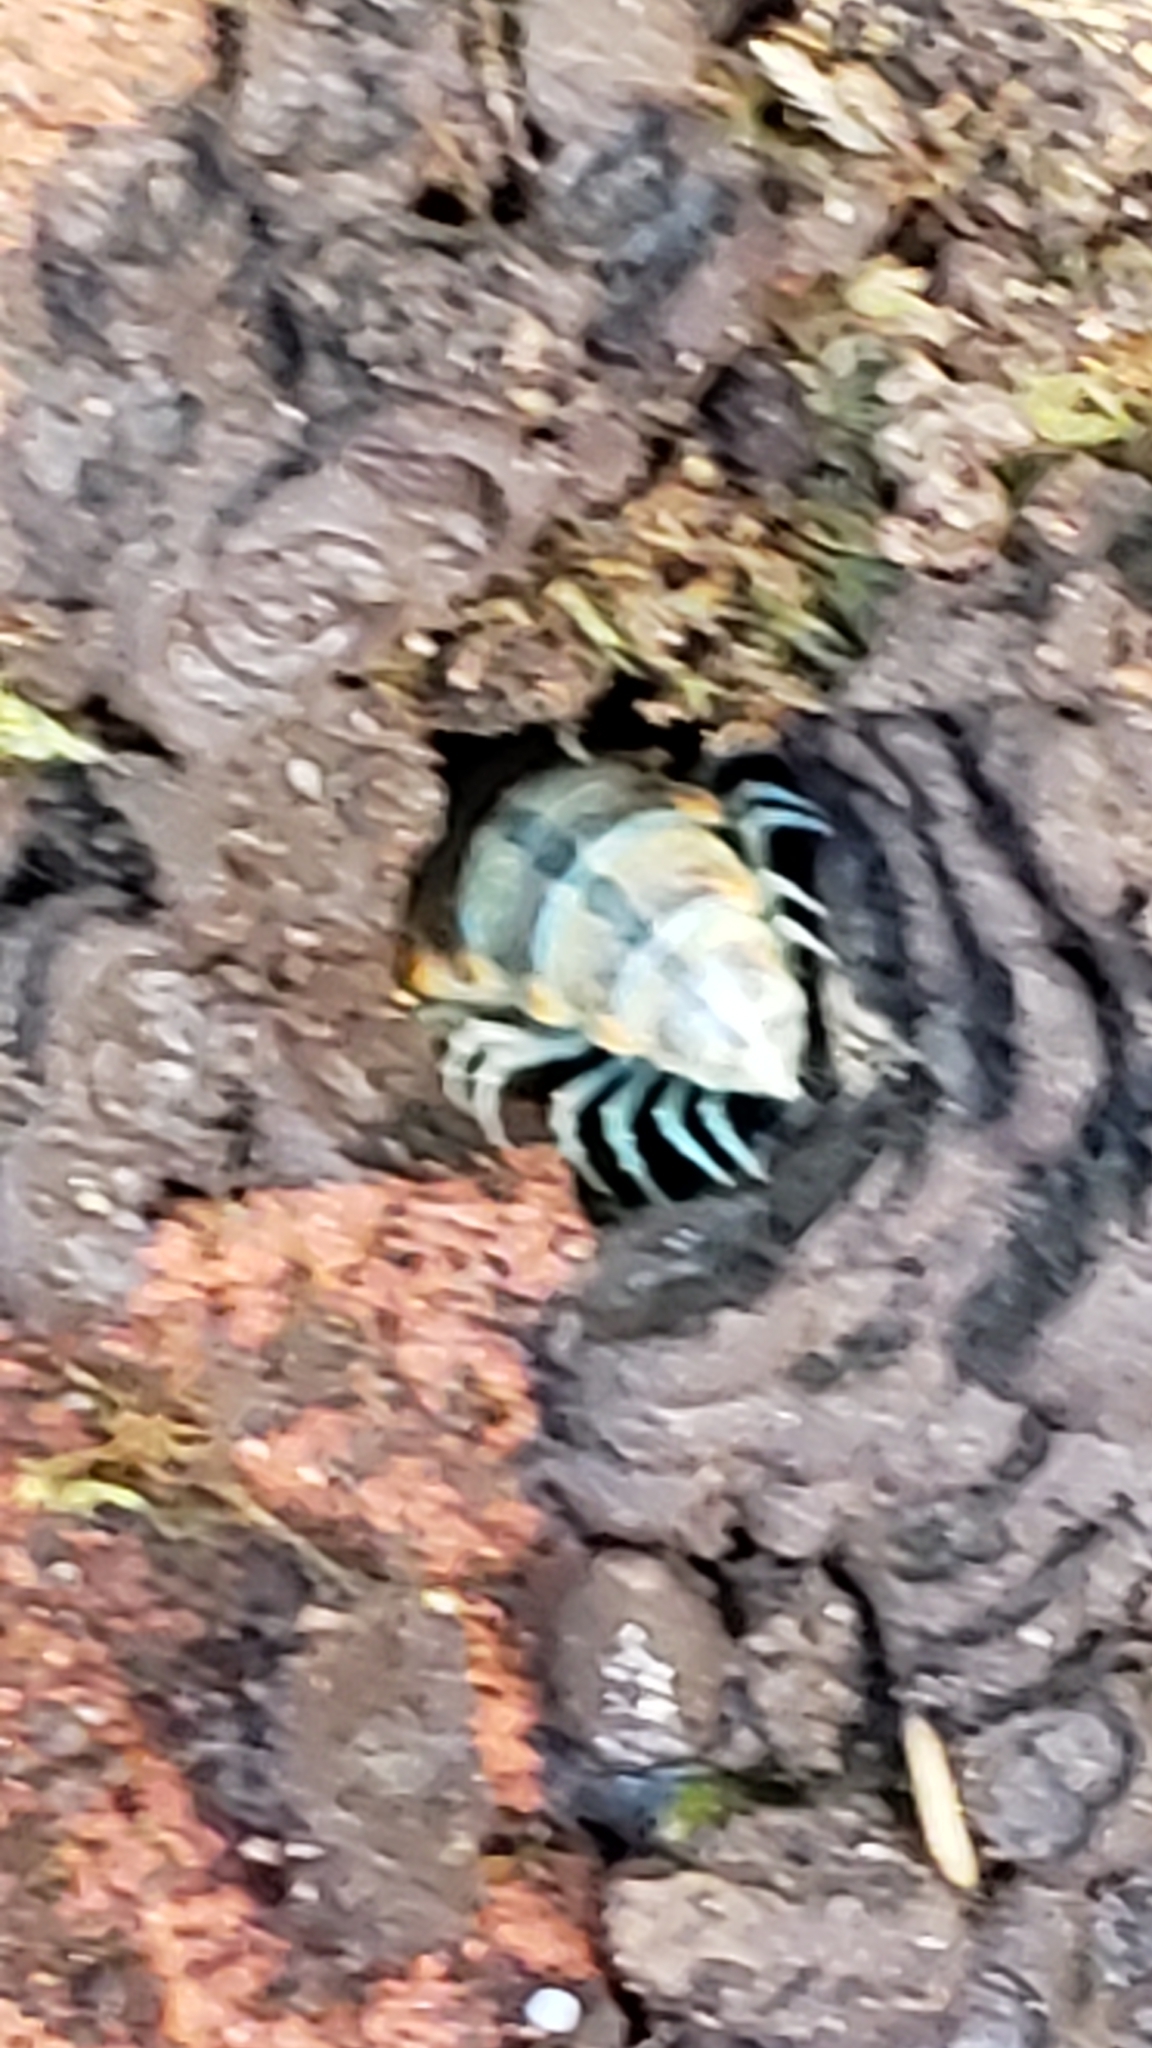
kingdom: Animalia
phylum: Arthropoda
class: Diplopoda
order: Polydesmida
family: Xystodesmidae
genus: Xystocheir
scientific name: Xystocheir dissecta
